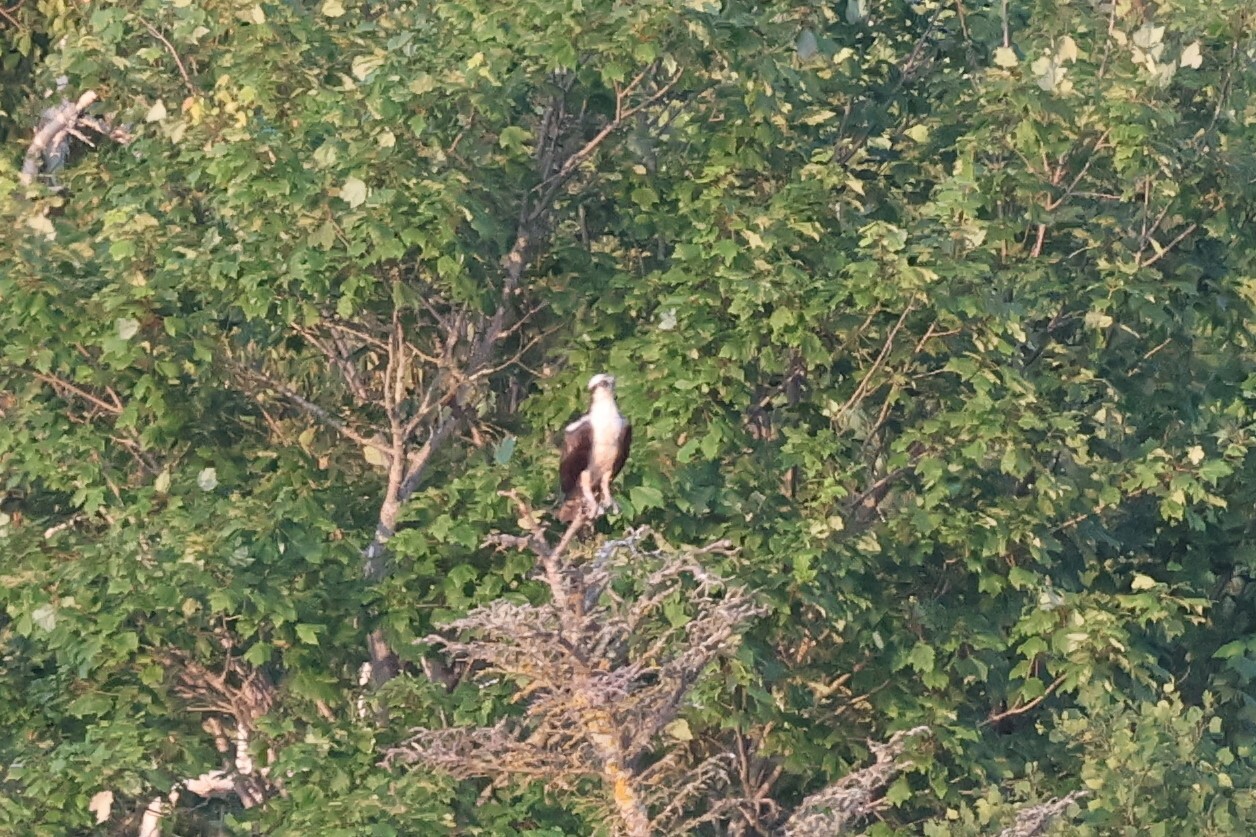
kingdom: Animalia
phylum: Chordata
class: Aves
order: Accipitriformes
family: Pandionidae
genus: Pandion
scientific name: Pandion haliaetus
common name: Osprey
